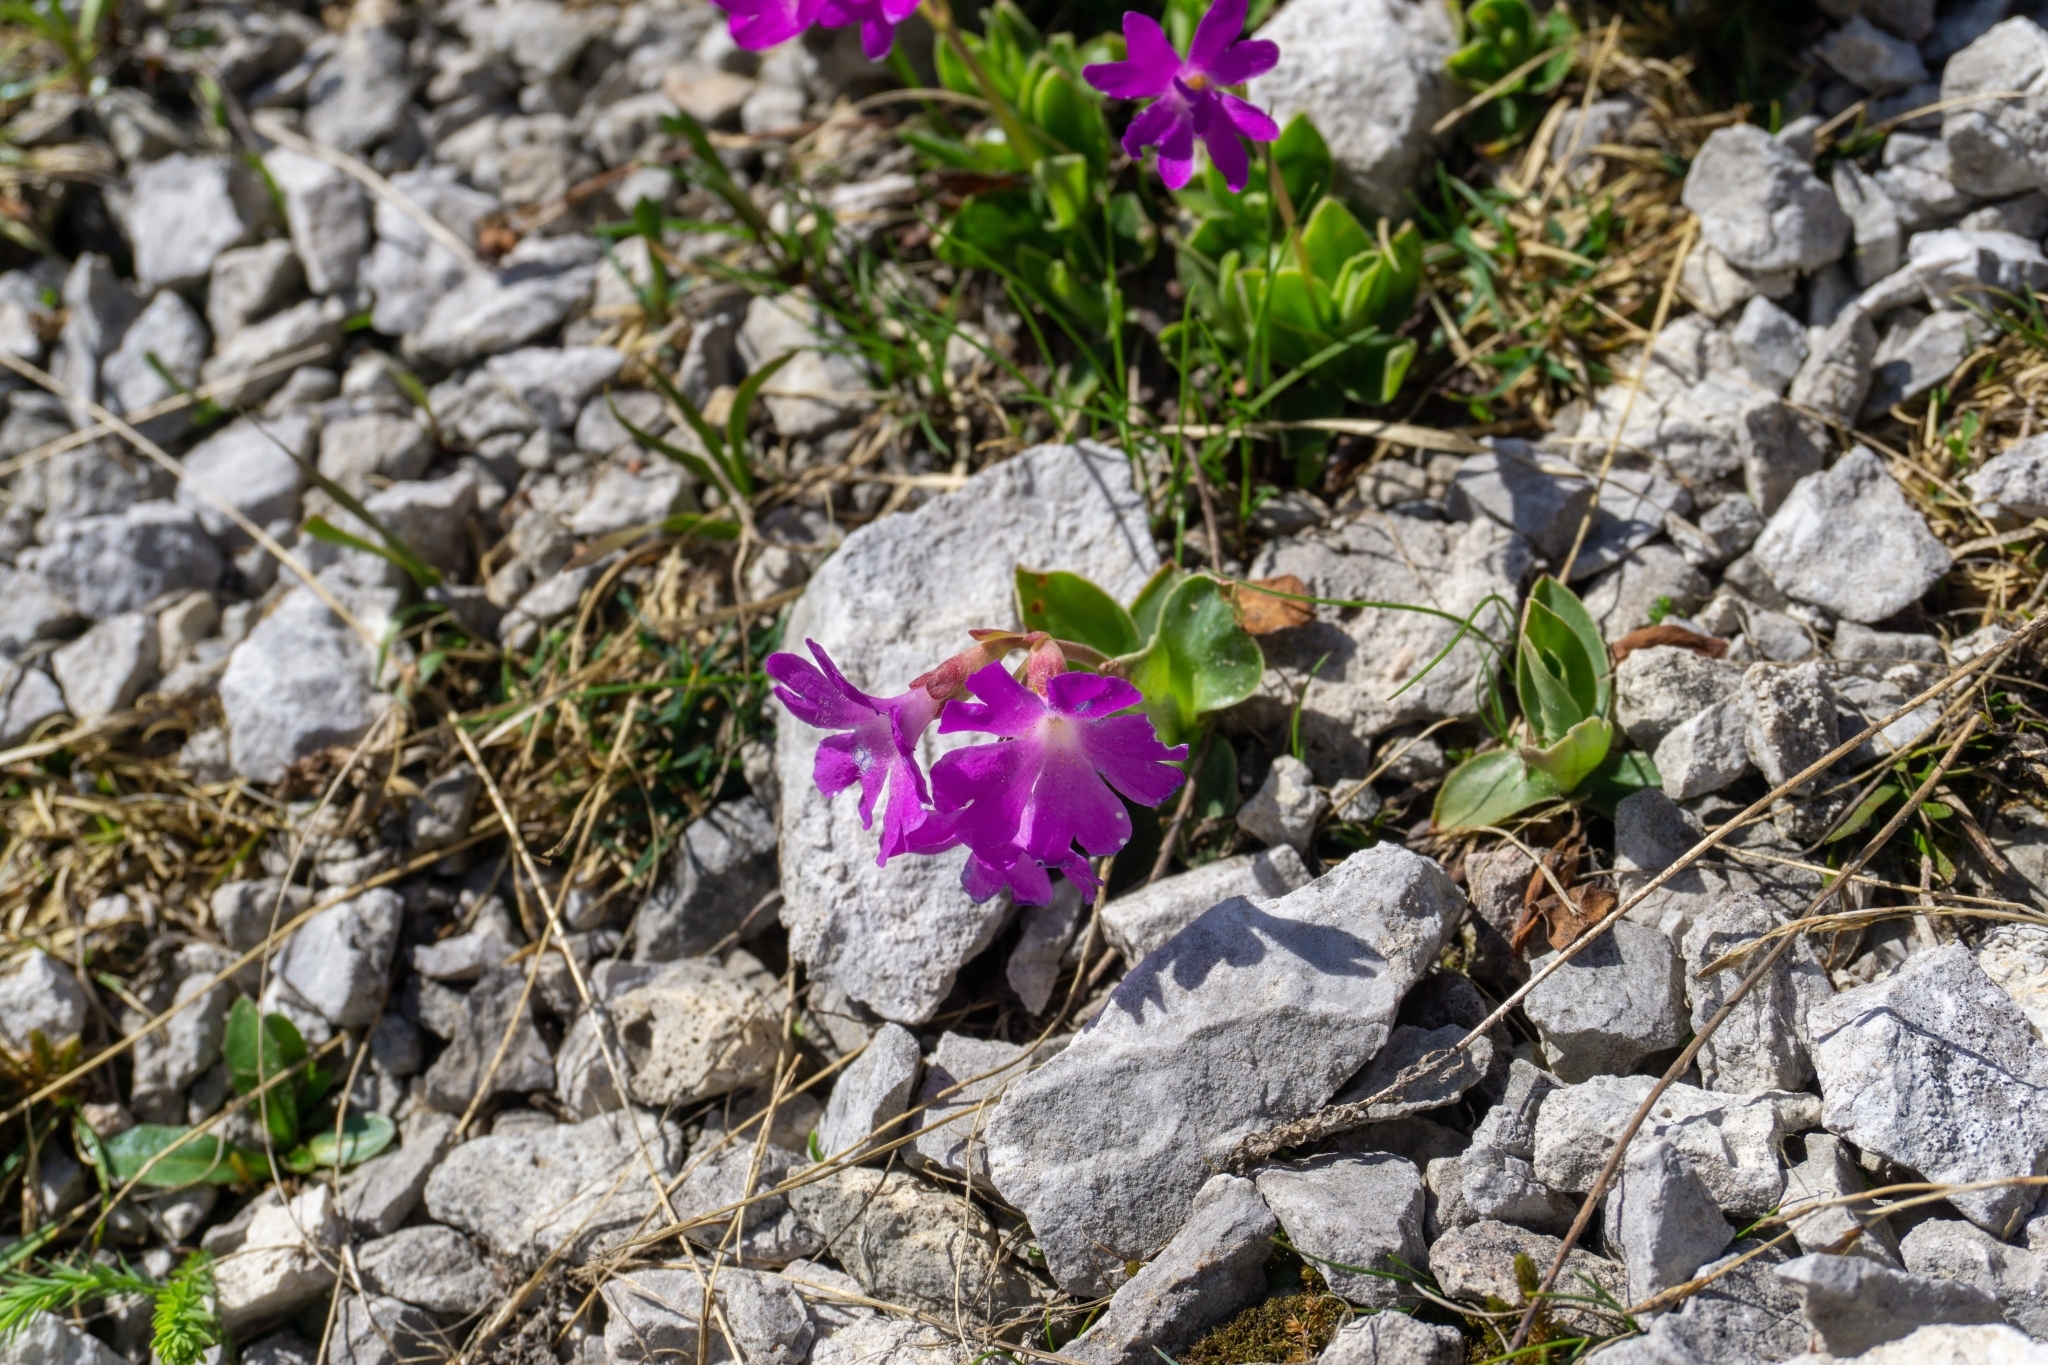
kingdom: Plantae
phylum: Tracheophyta
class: Magnoliopsida
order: Ericales
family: Primulaceae
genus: Primula
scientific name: Primula clusiana
